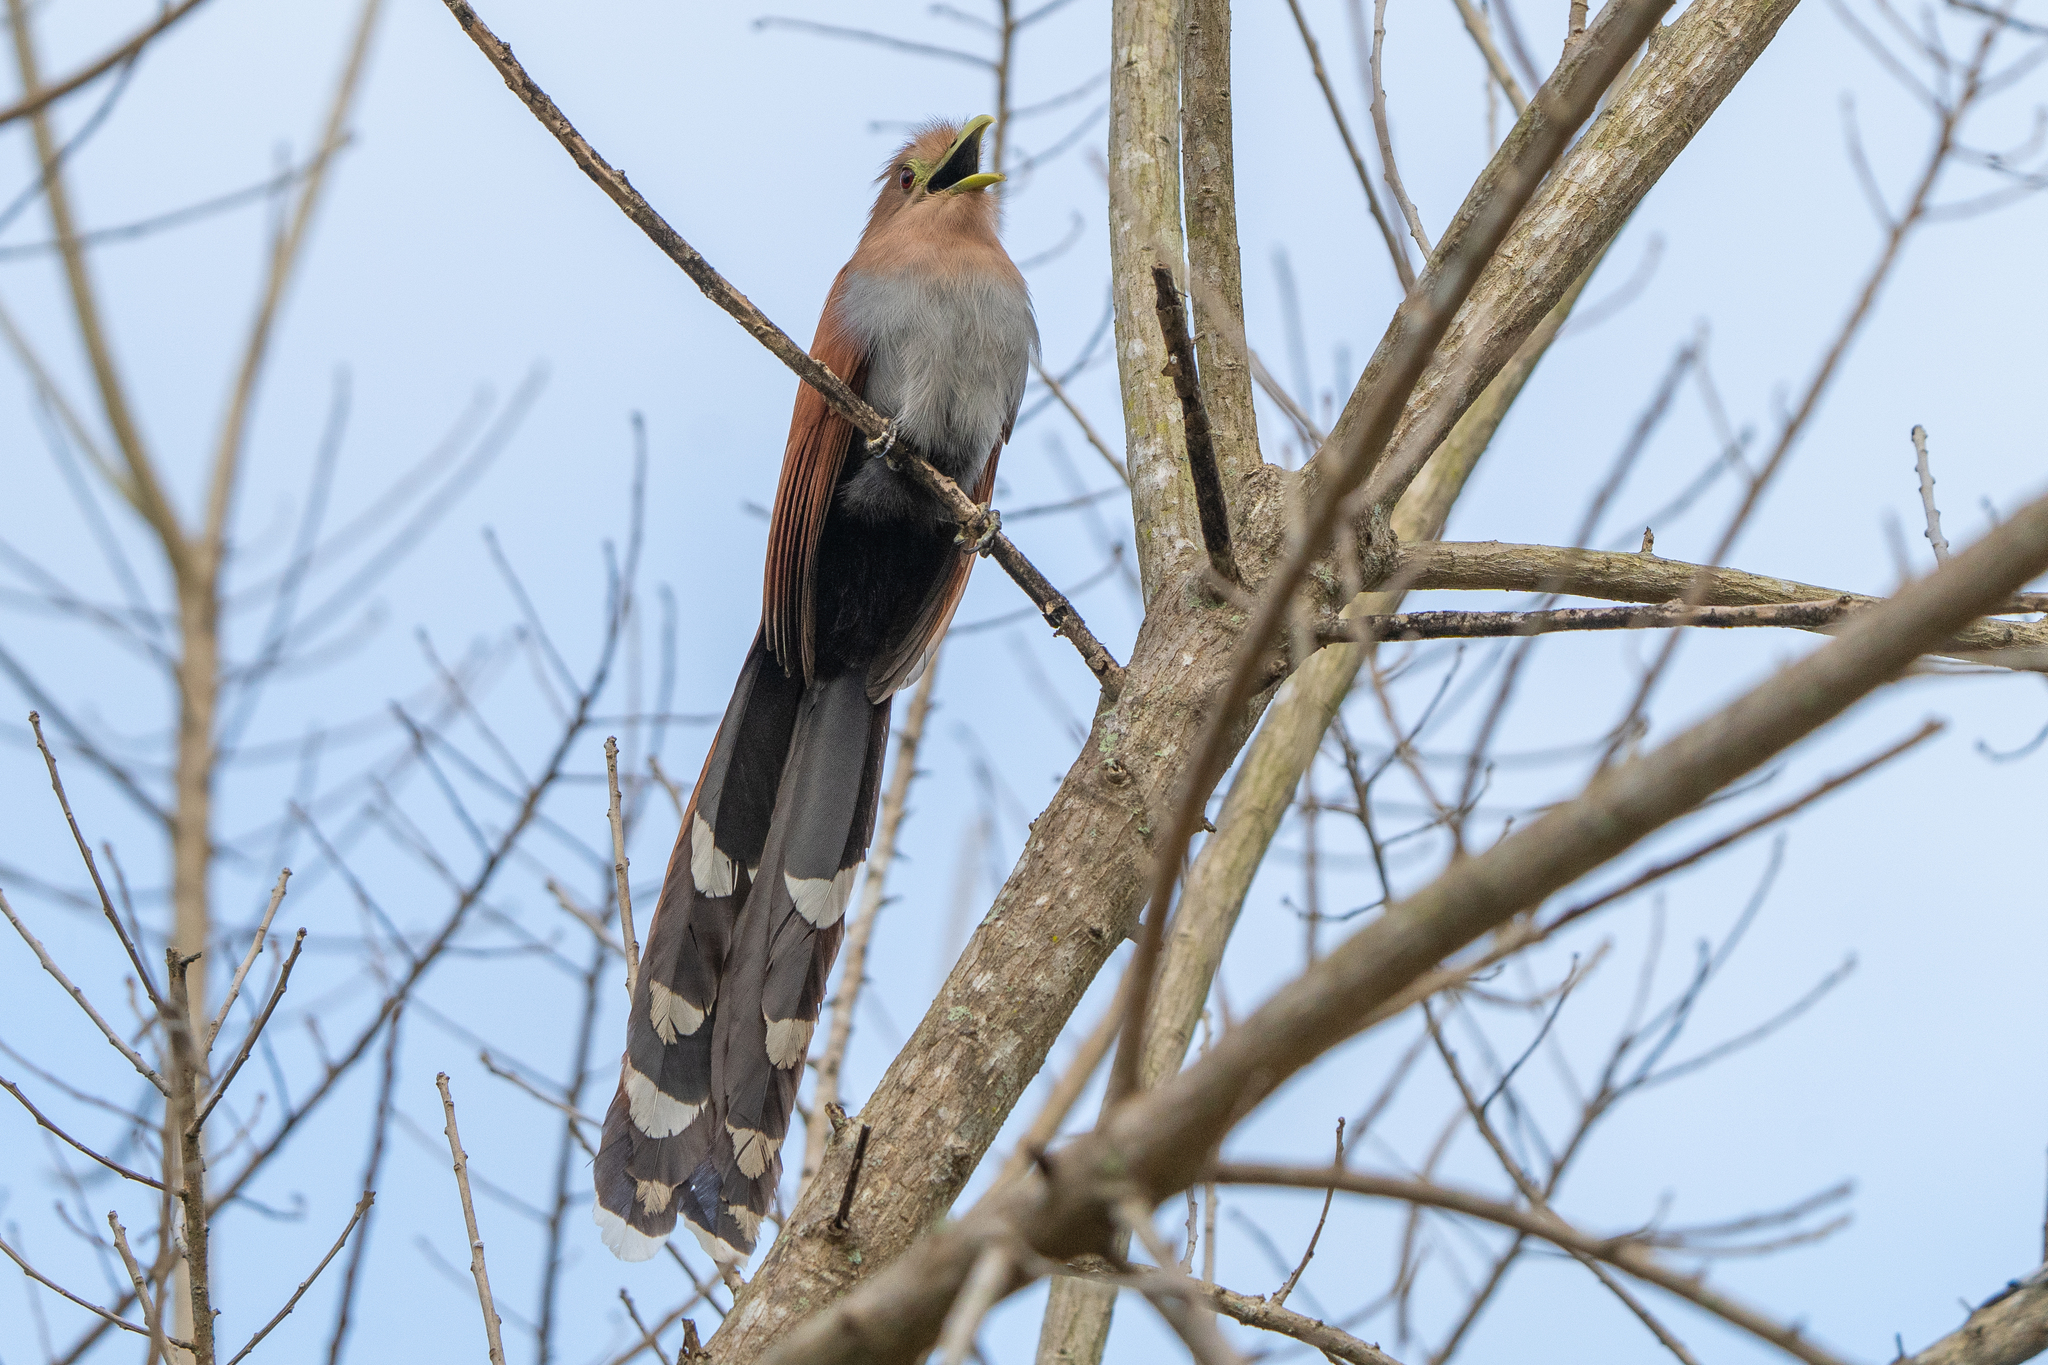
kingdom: Animalia
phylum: Chordata
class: Aves
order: Cuculiformes
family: Cuculidae
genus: Piaya
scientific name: Piaya cayana
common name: Squirrel cuckoo
